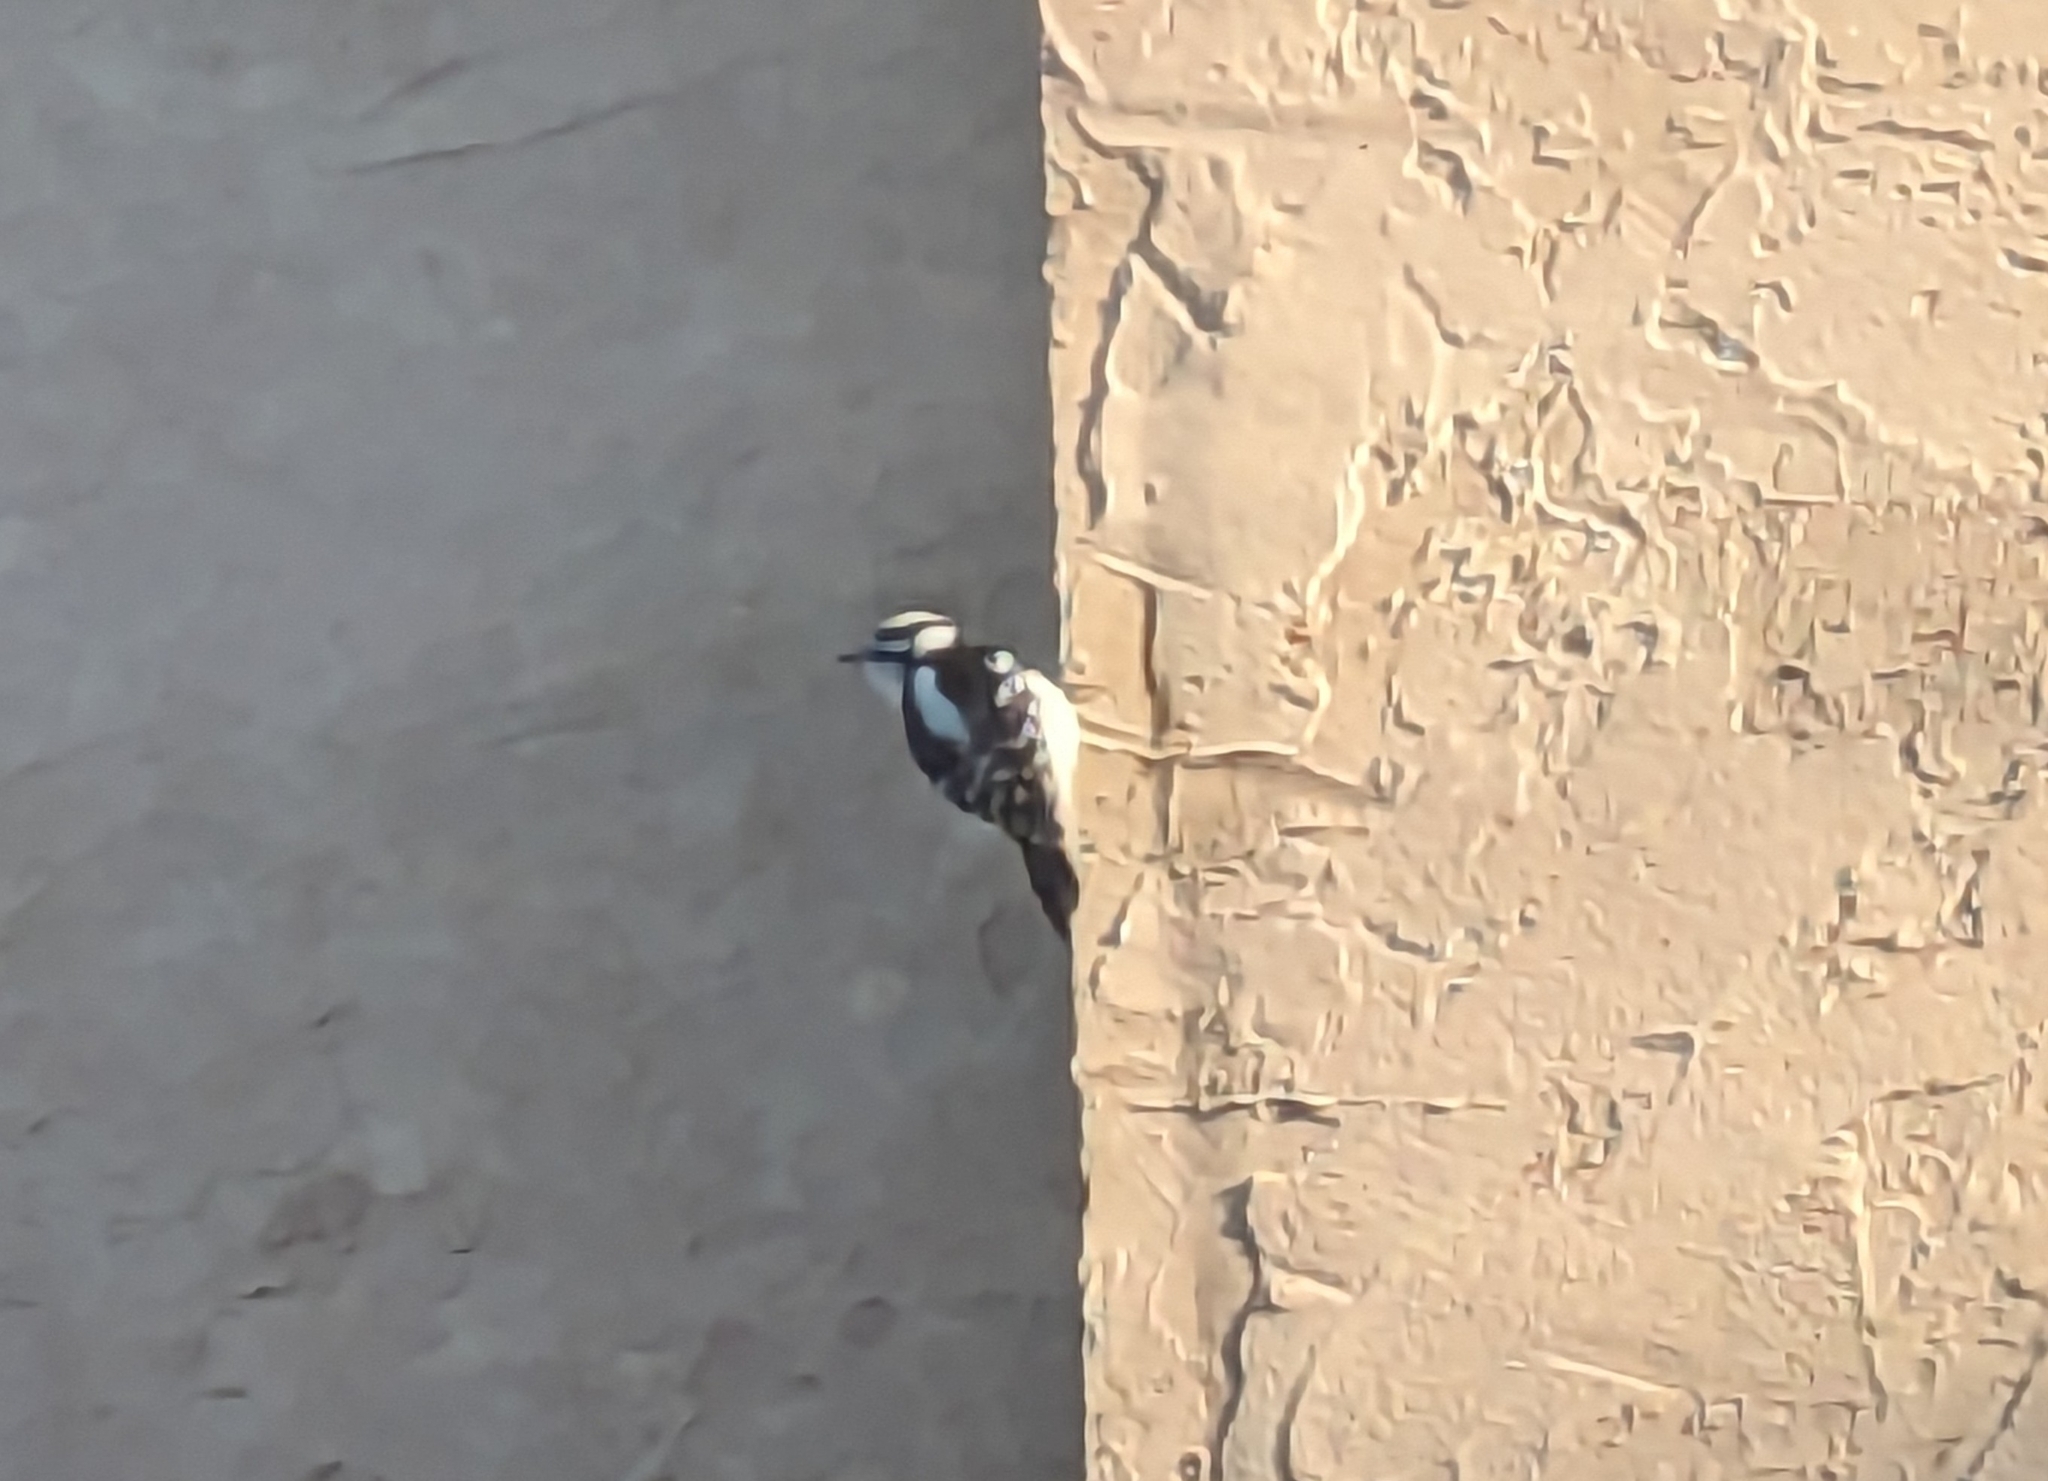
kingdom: Animalia
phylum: Chordata
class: Aves
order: Piciformes
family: Picidae
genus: Dryobates
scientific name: Dryobates pubescens
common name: Downy woodpecker
